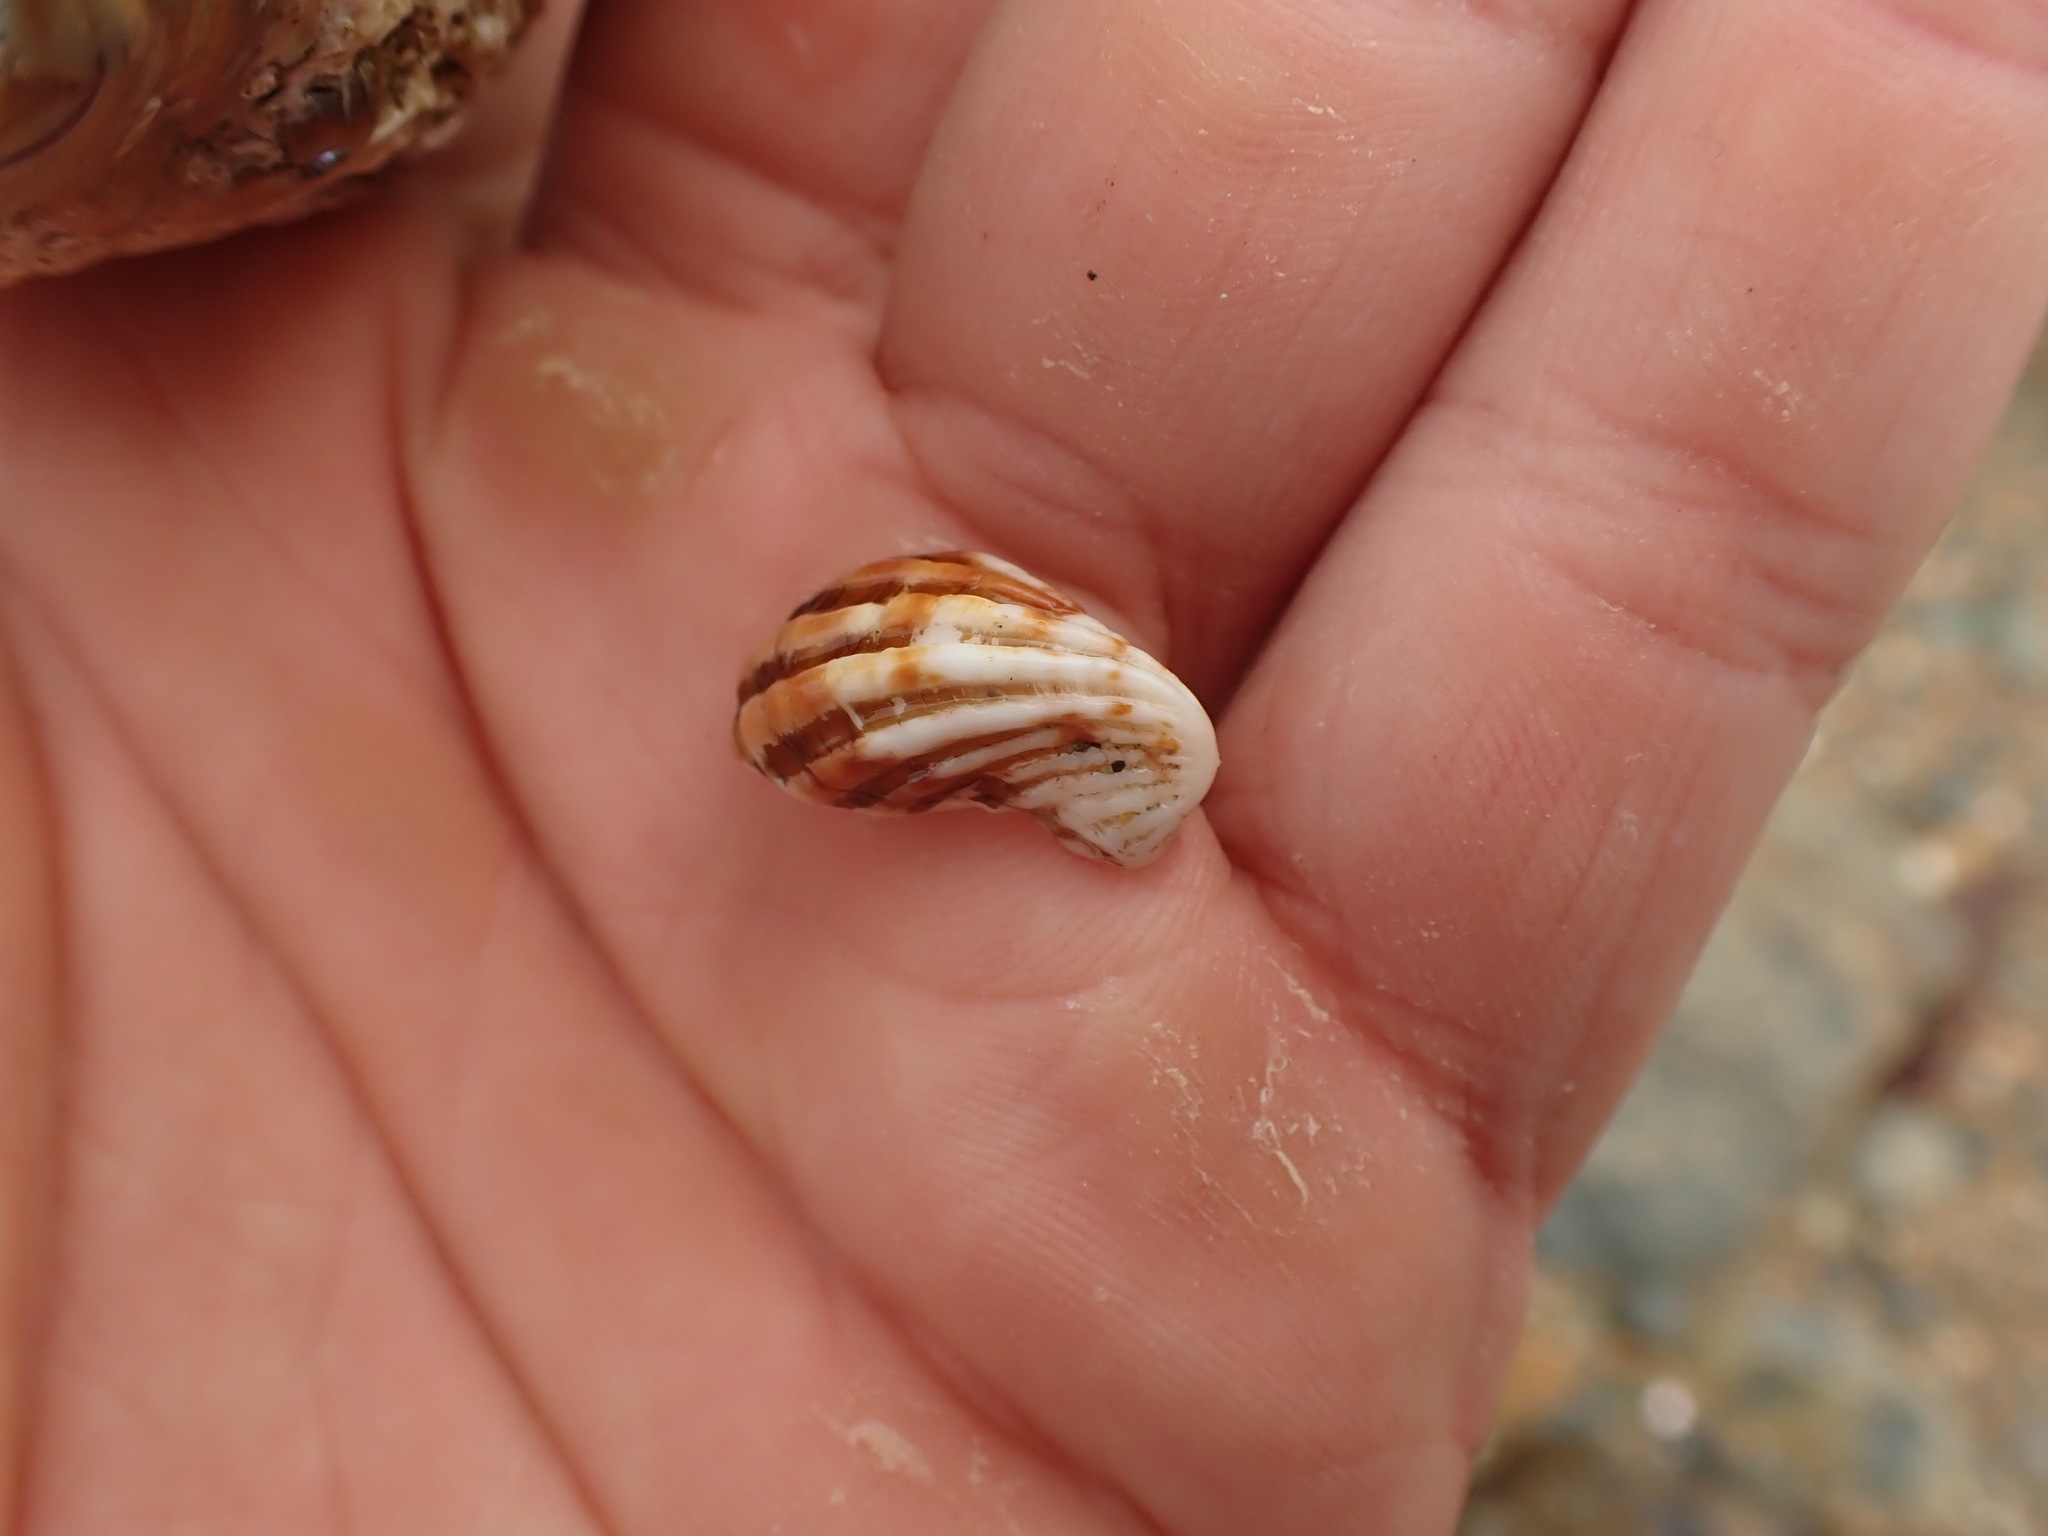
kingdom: Animalia
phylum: Mollusca
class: Bivalvia
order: Carditida
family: Carditidae
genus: Cardita
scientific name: Cardita distorta
